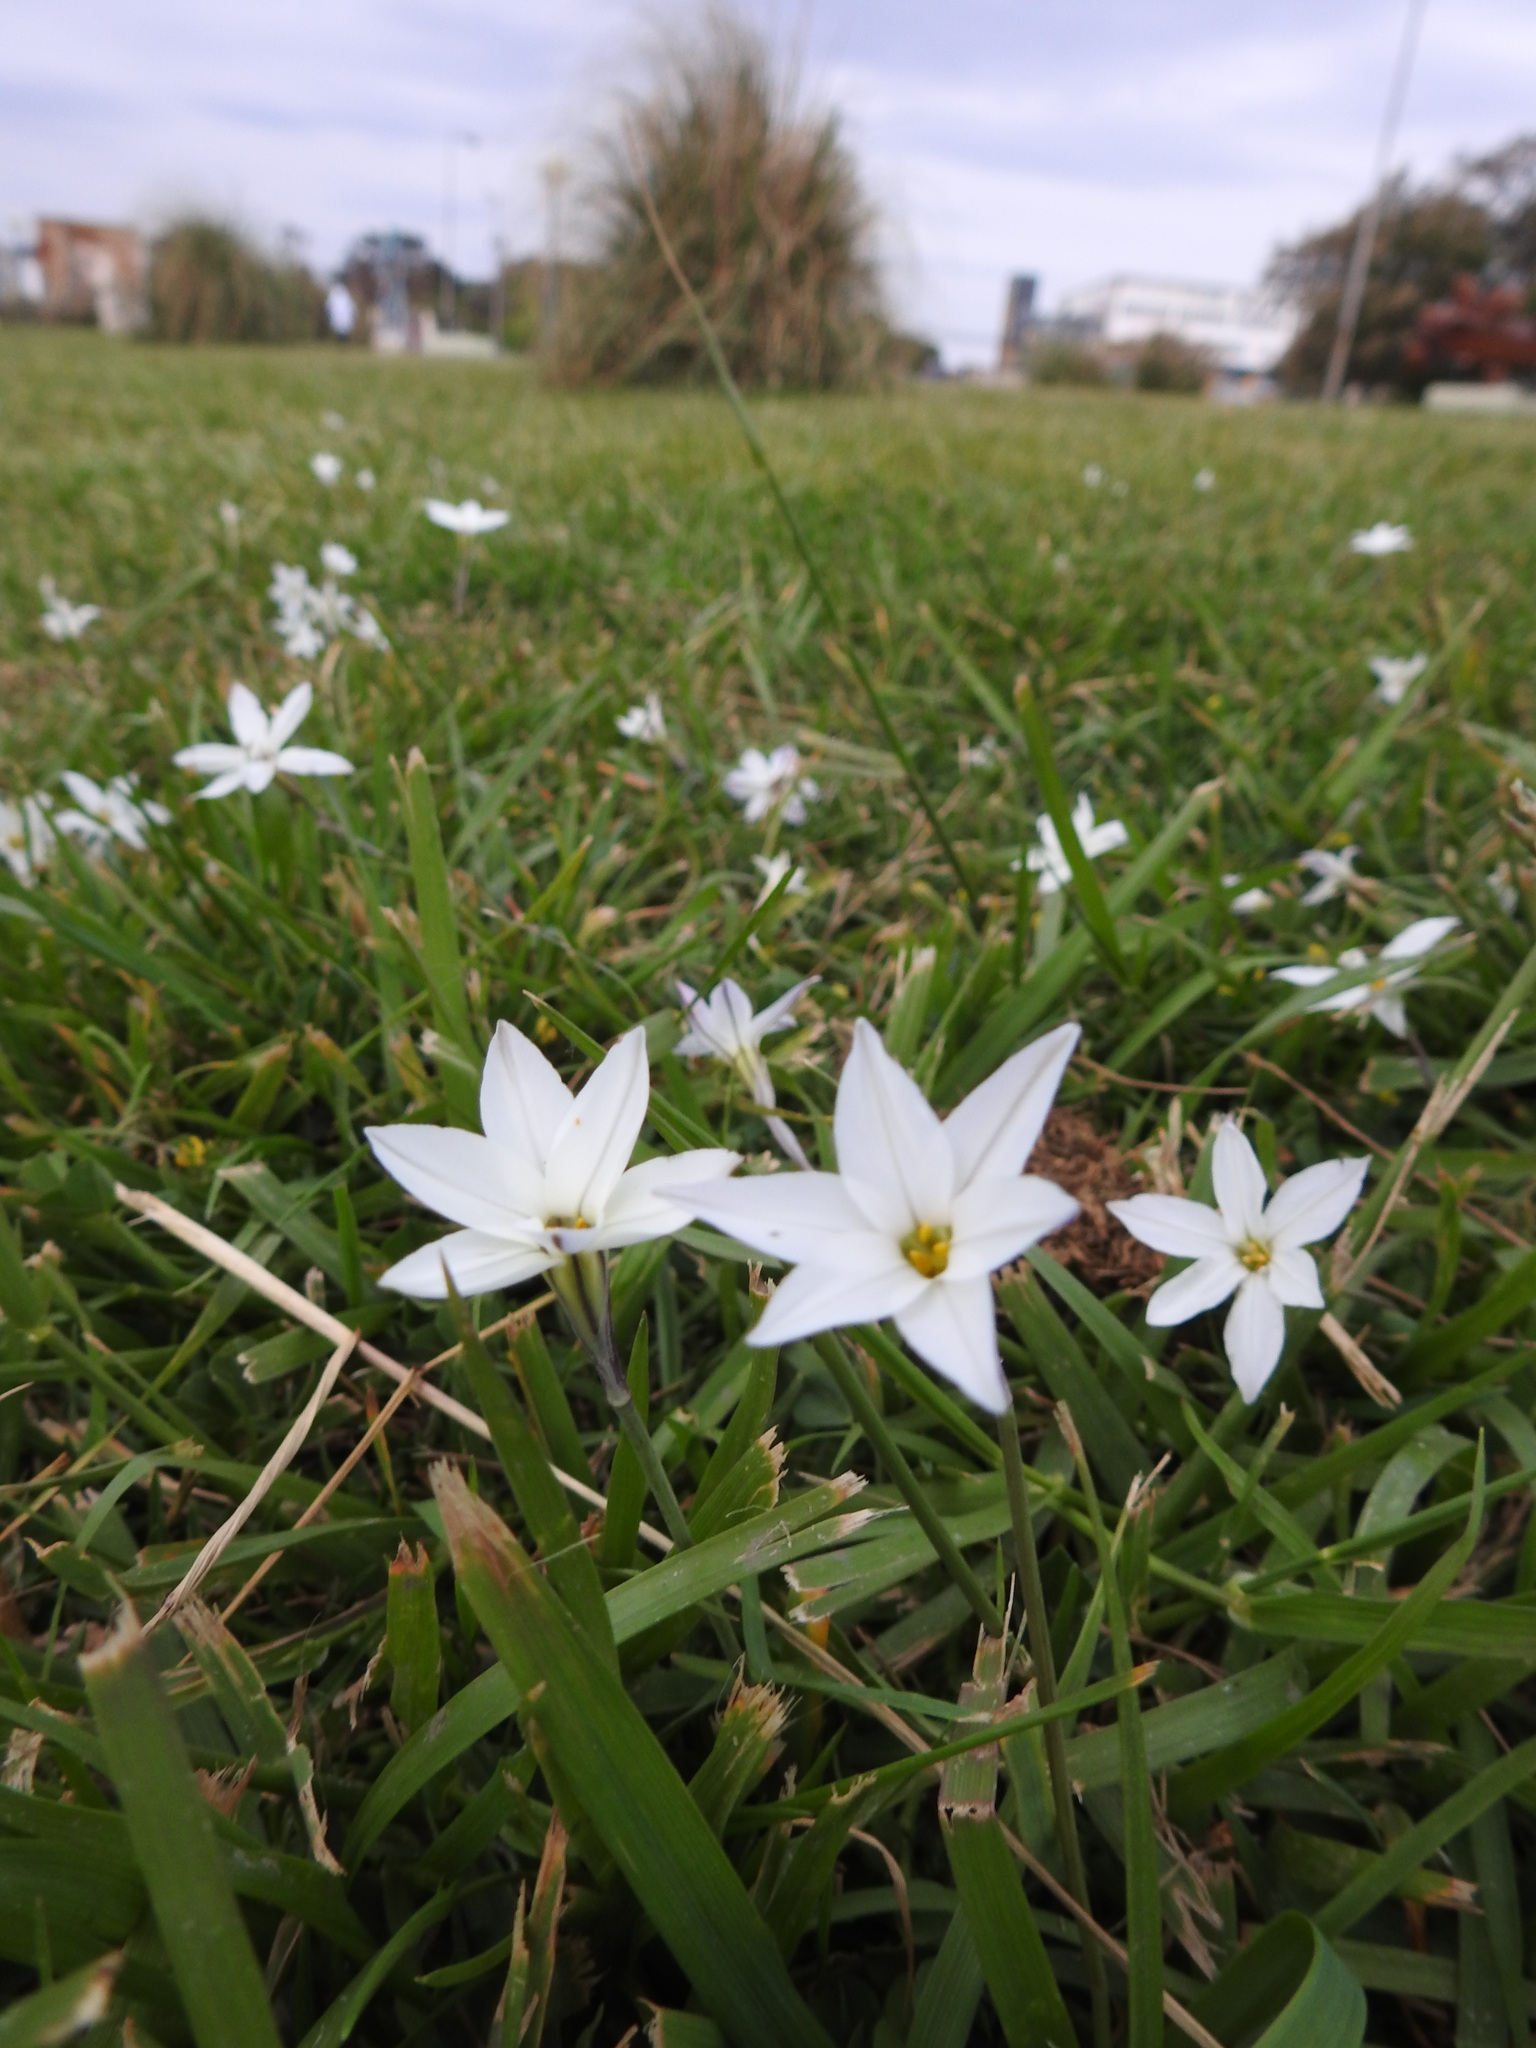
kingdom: Plantae
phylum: Tracheophyta
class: Liliopsida
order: Asparagales
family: Amaryllidaceae
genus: Ipheion
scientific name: Ipheion uniflorum
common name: Spring starflower
